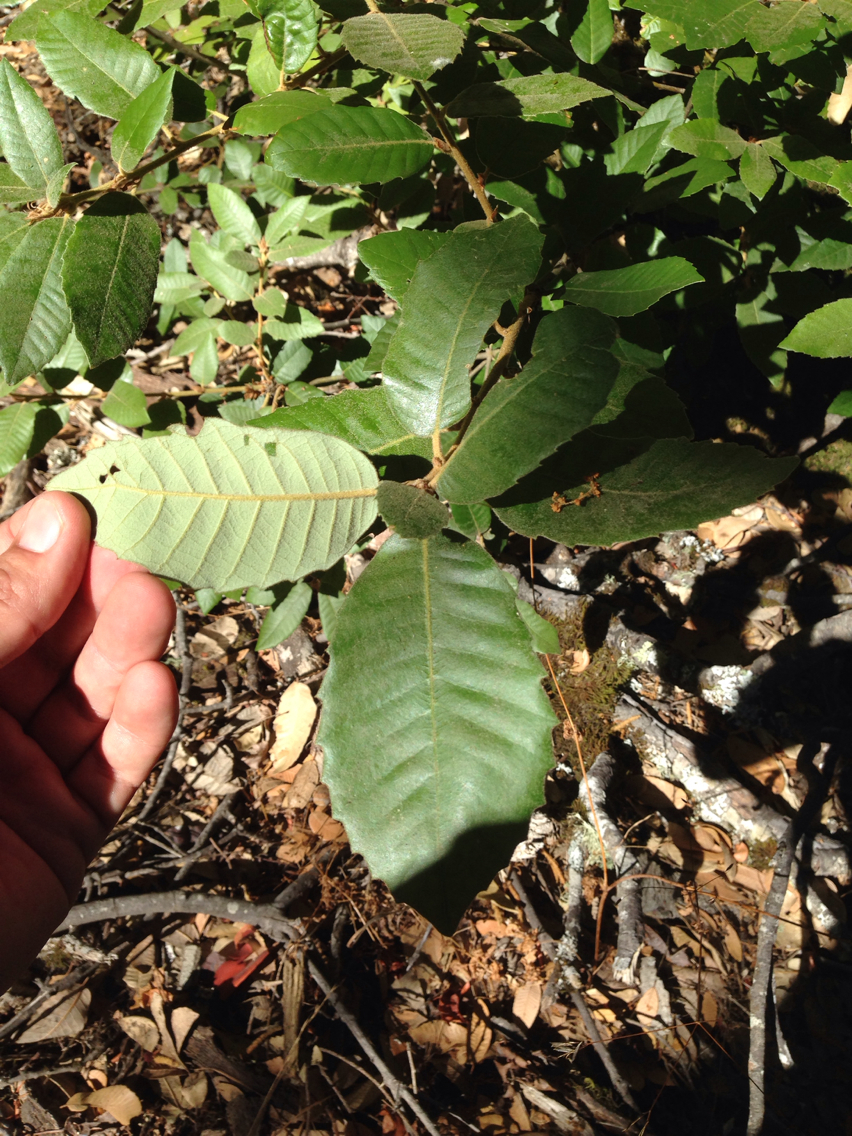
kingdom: Plantae
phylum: Tracheophyta
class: Magnoliopsida
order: Fagales
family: Fagaceae
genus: Notholithocarpus
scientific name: Notholithocarpus densiflorus
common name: Tan bark oak
